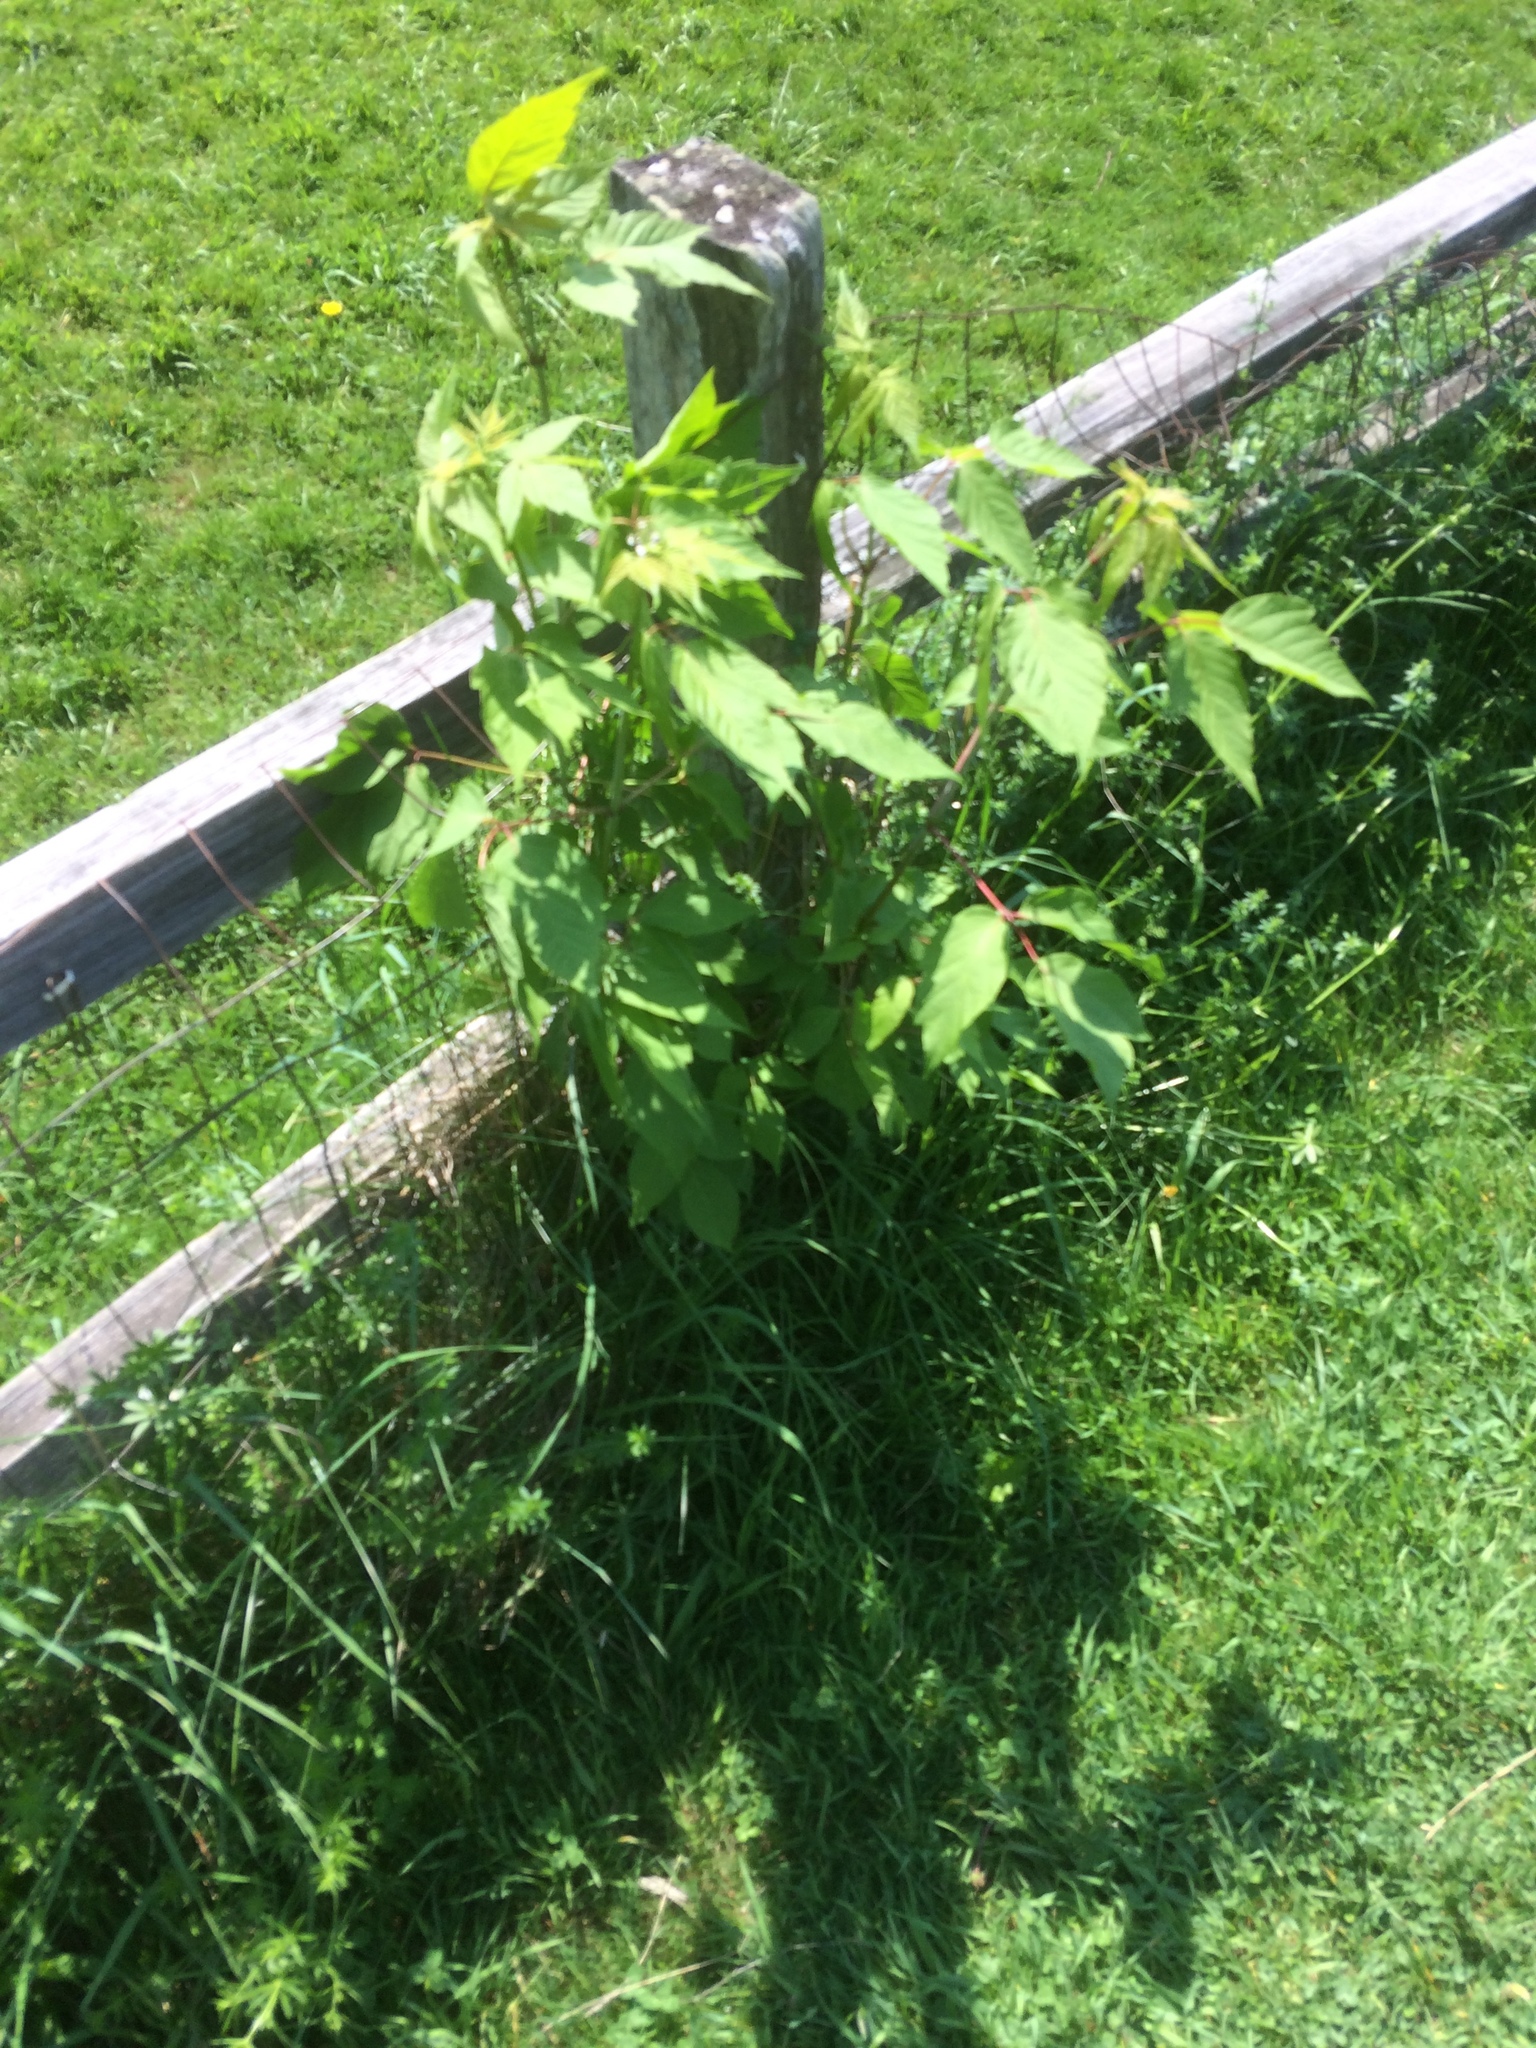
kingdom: Plantae
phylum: Tracheophyta
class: Magnoliopsida
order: Sapindales
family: Sapindaceae
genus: Acer
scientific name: Acer negundo
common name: Ashleaf maple
